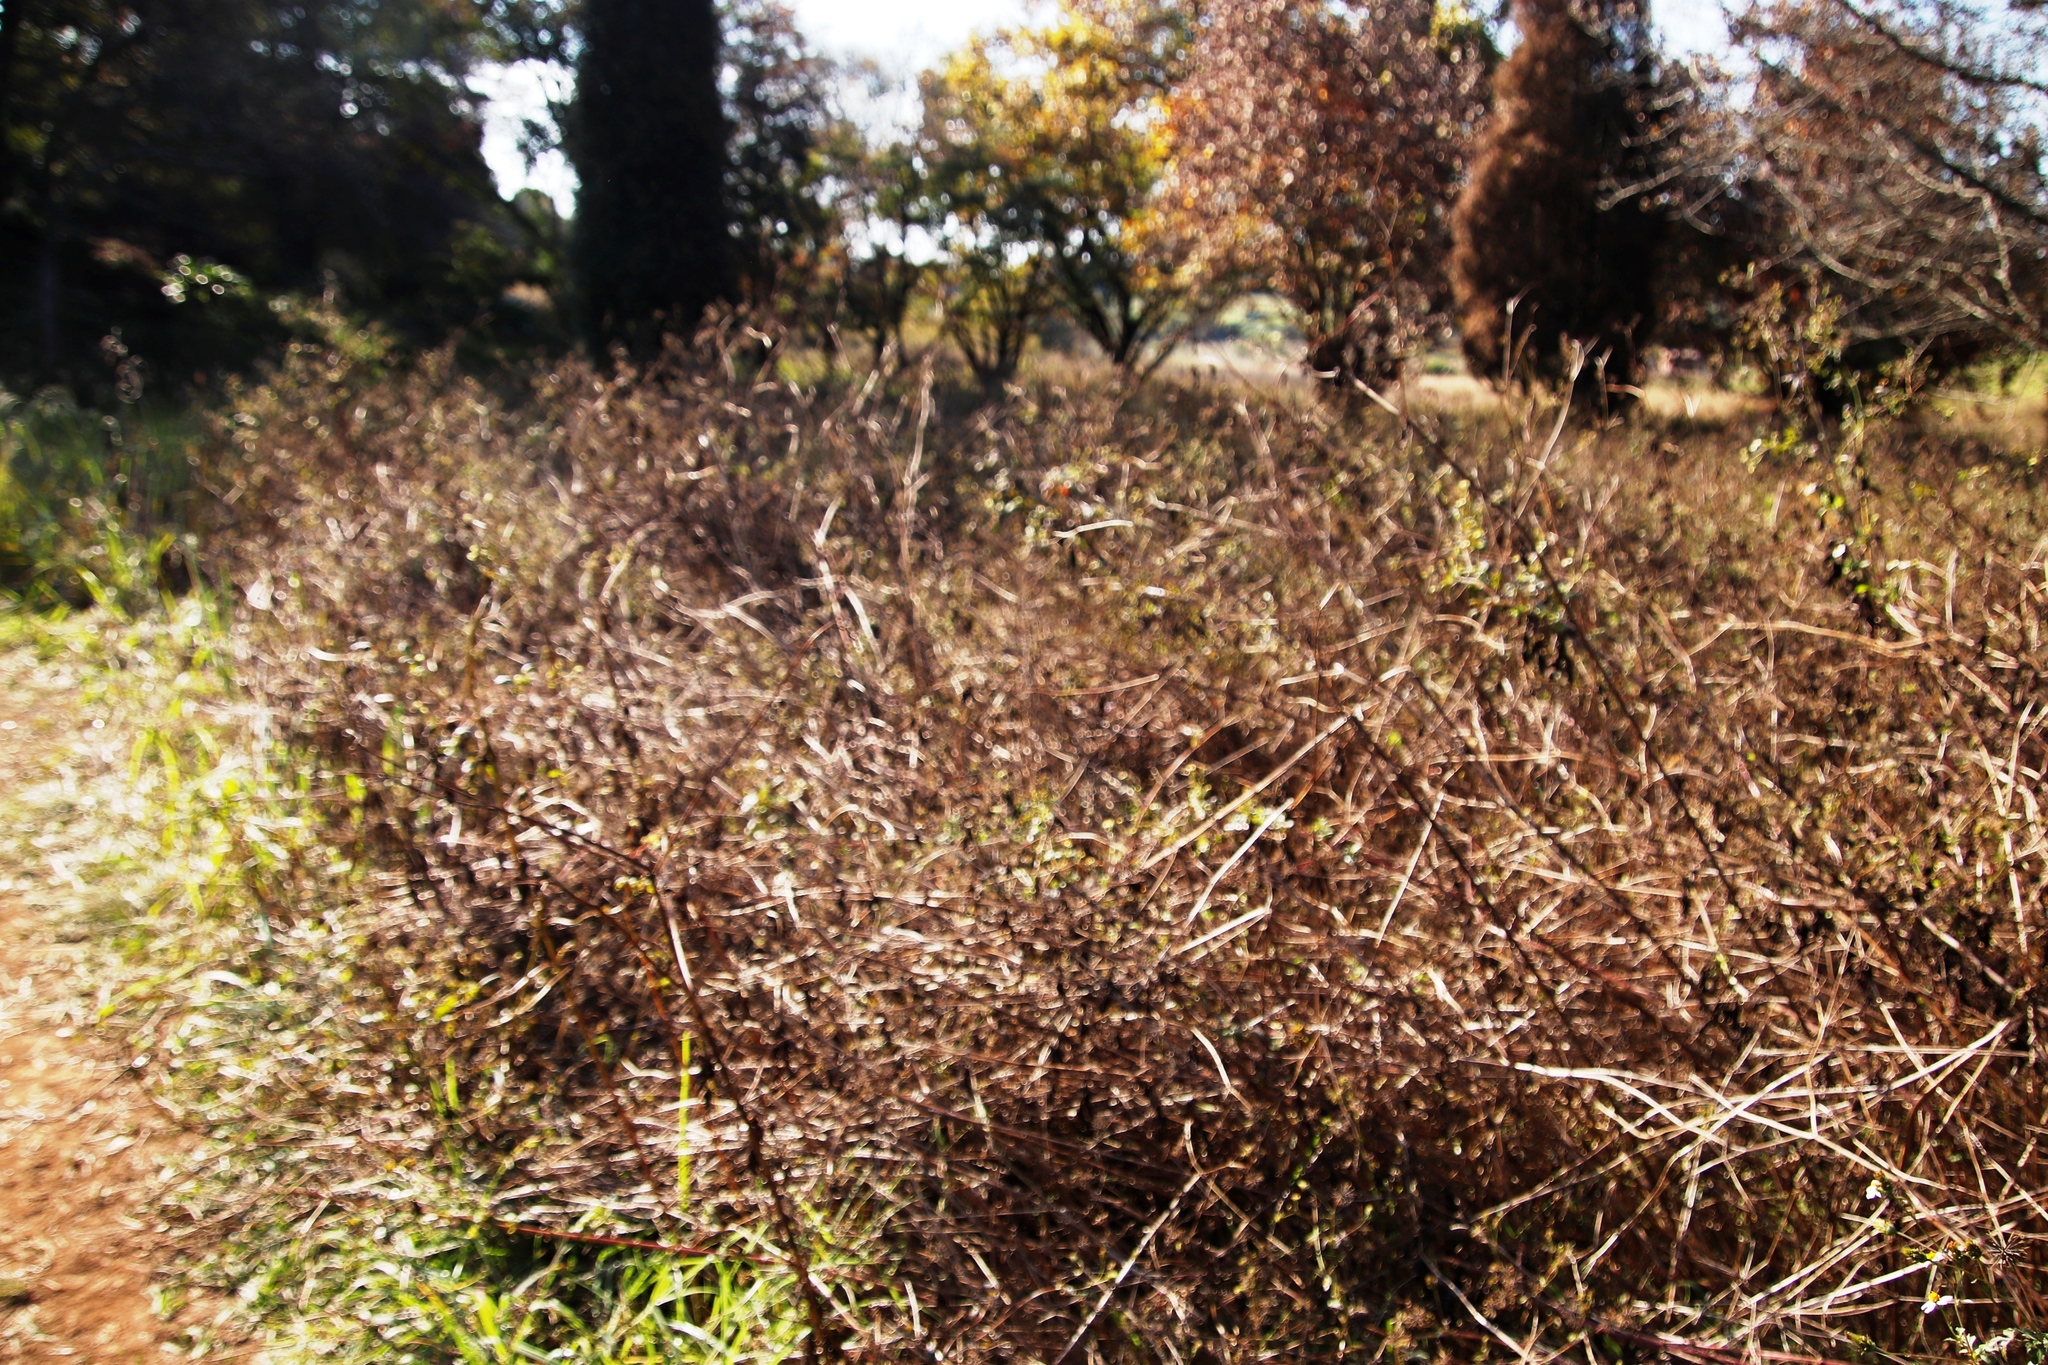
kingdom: Plantae
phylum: Tracheophyta
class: Magnoliopsida
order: Asterales
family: Asteraceae
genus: Bidens
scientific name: Bidens pilosa
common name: Black-jack
